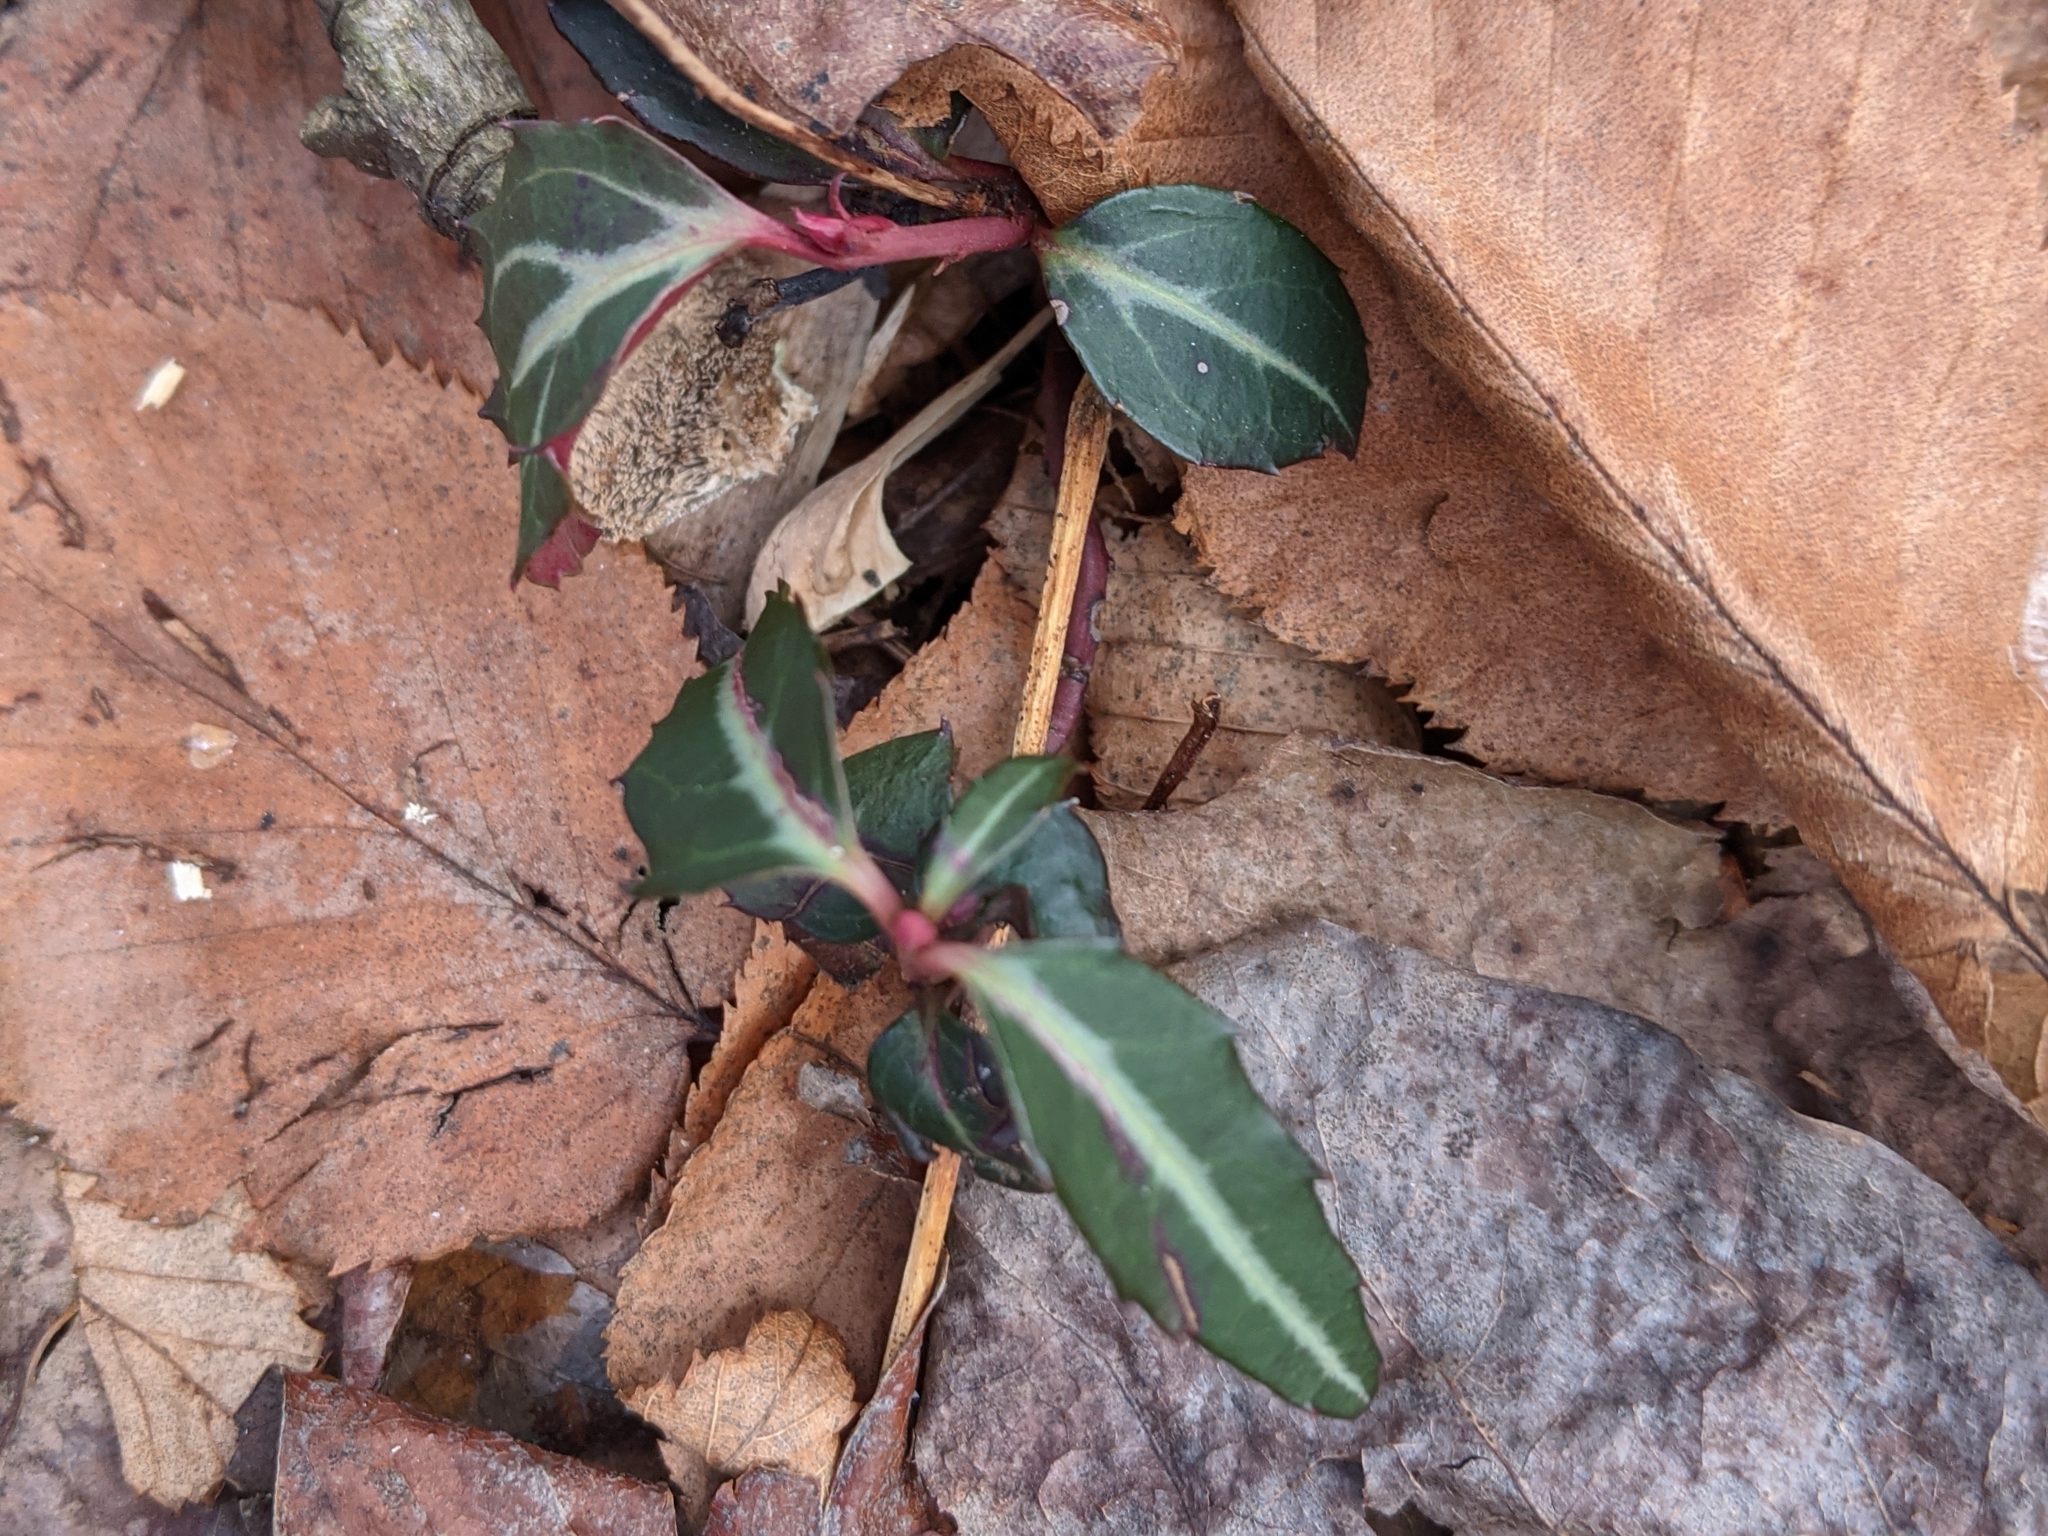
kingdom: Plantae
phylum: Tracheophyta
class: Magnoliopsida
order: Ericales
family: Ericaceae
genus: Chimaphila
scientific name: Chimaphila maculata
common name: Spotted pipsissewa
